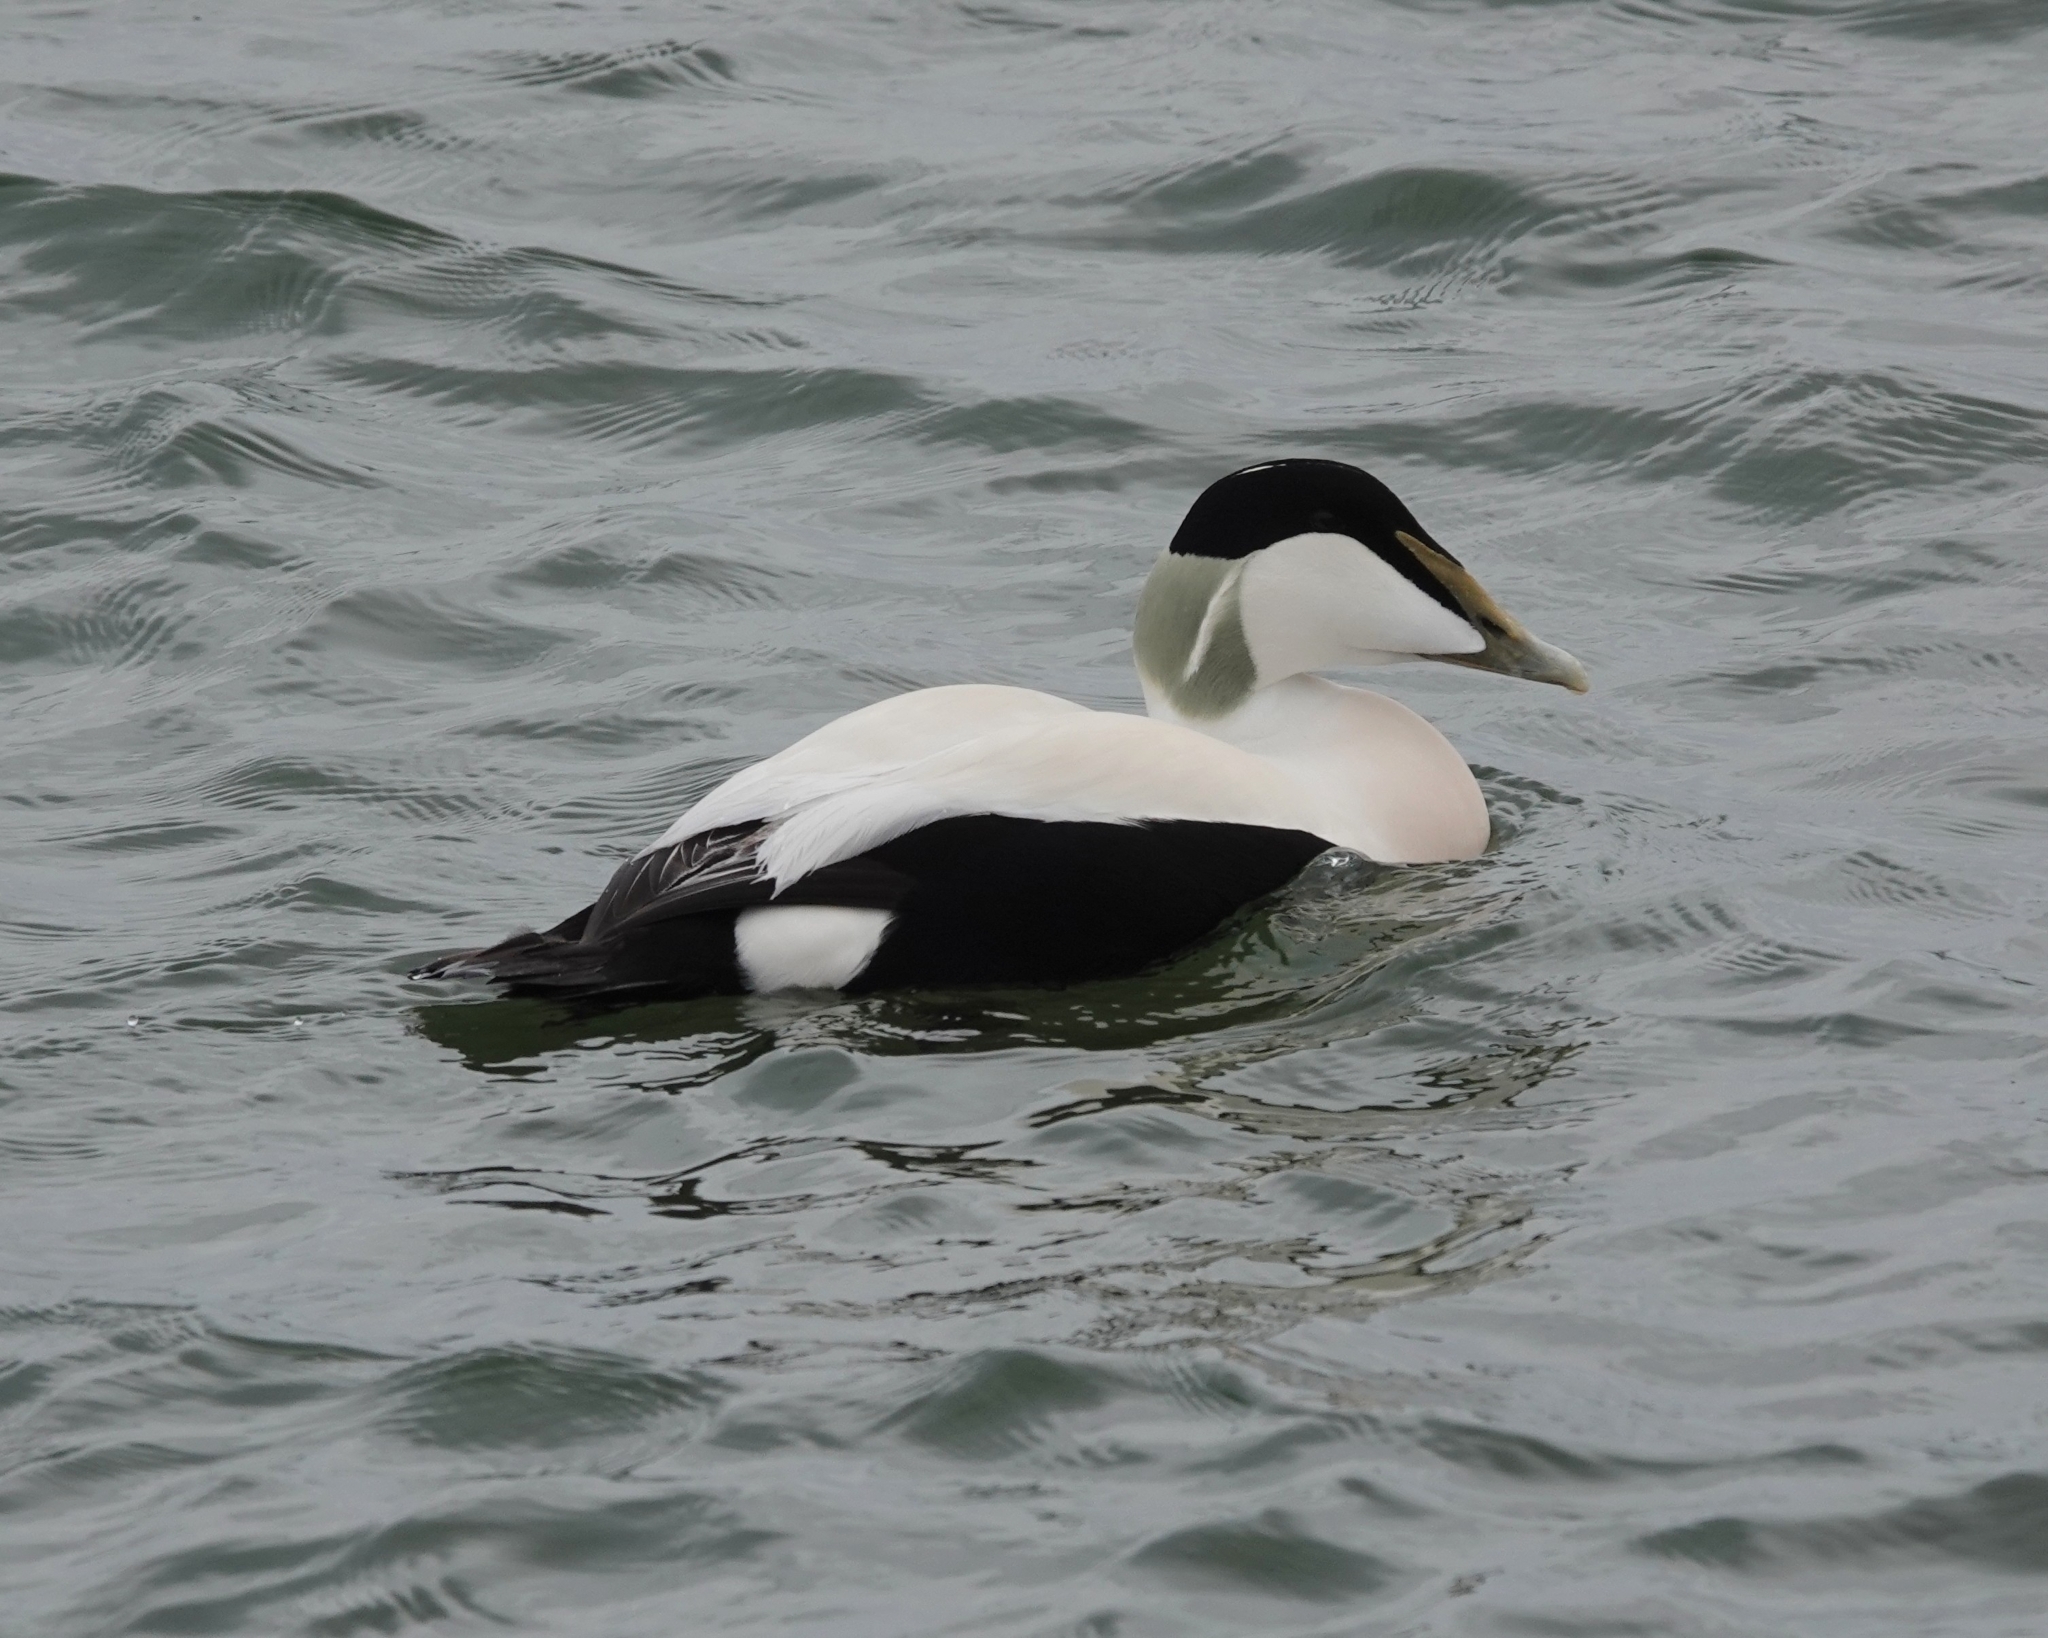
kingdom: Animalia
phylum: Chordata
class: Aves
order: Anseriformes
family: Anatidae
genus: Somateria
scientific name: Somateria mollissima
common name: Common eider
